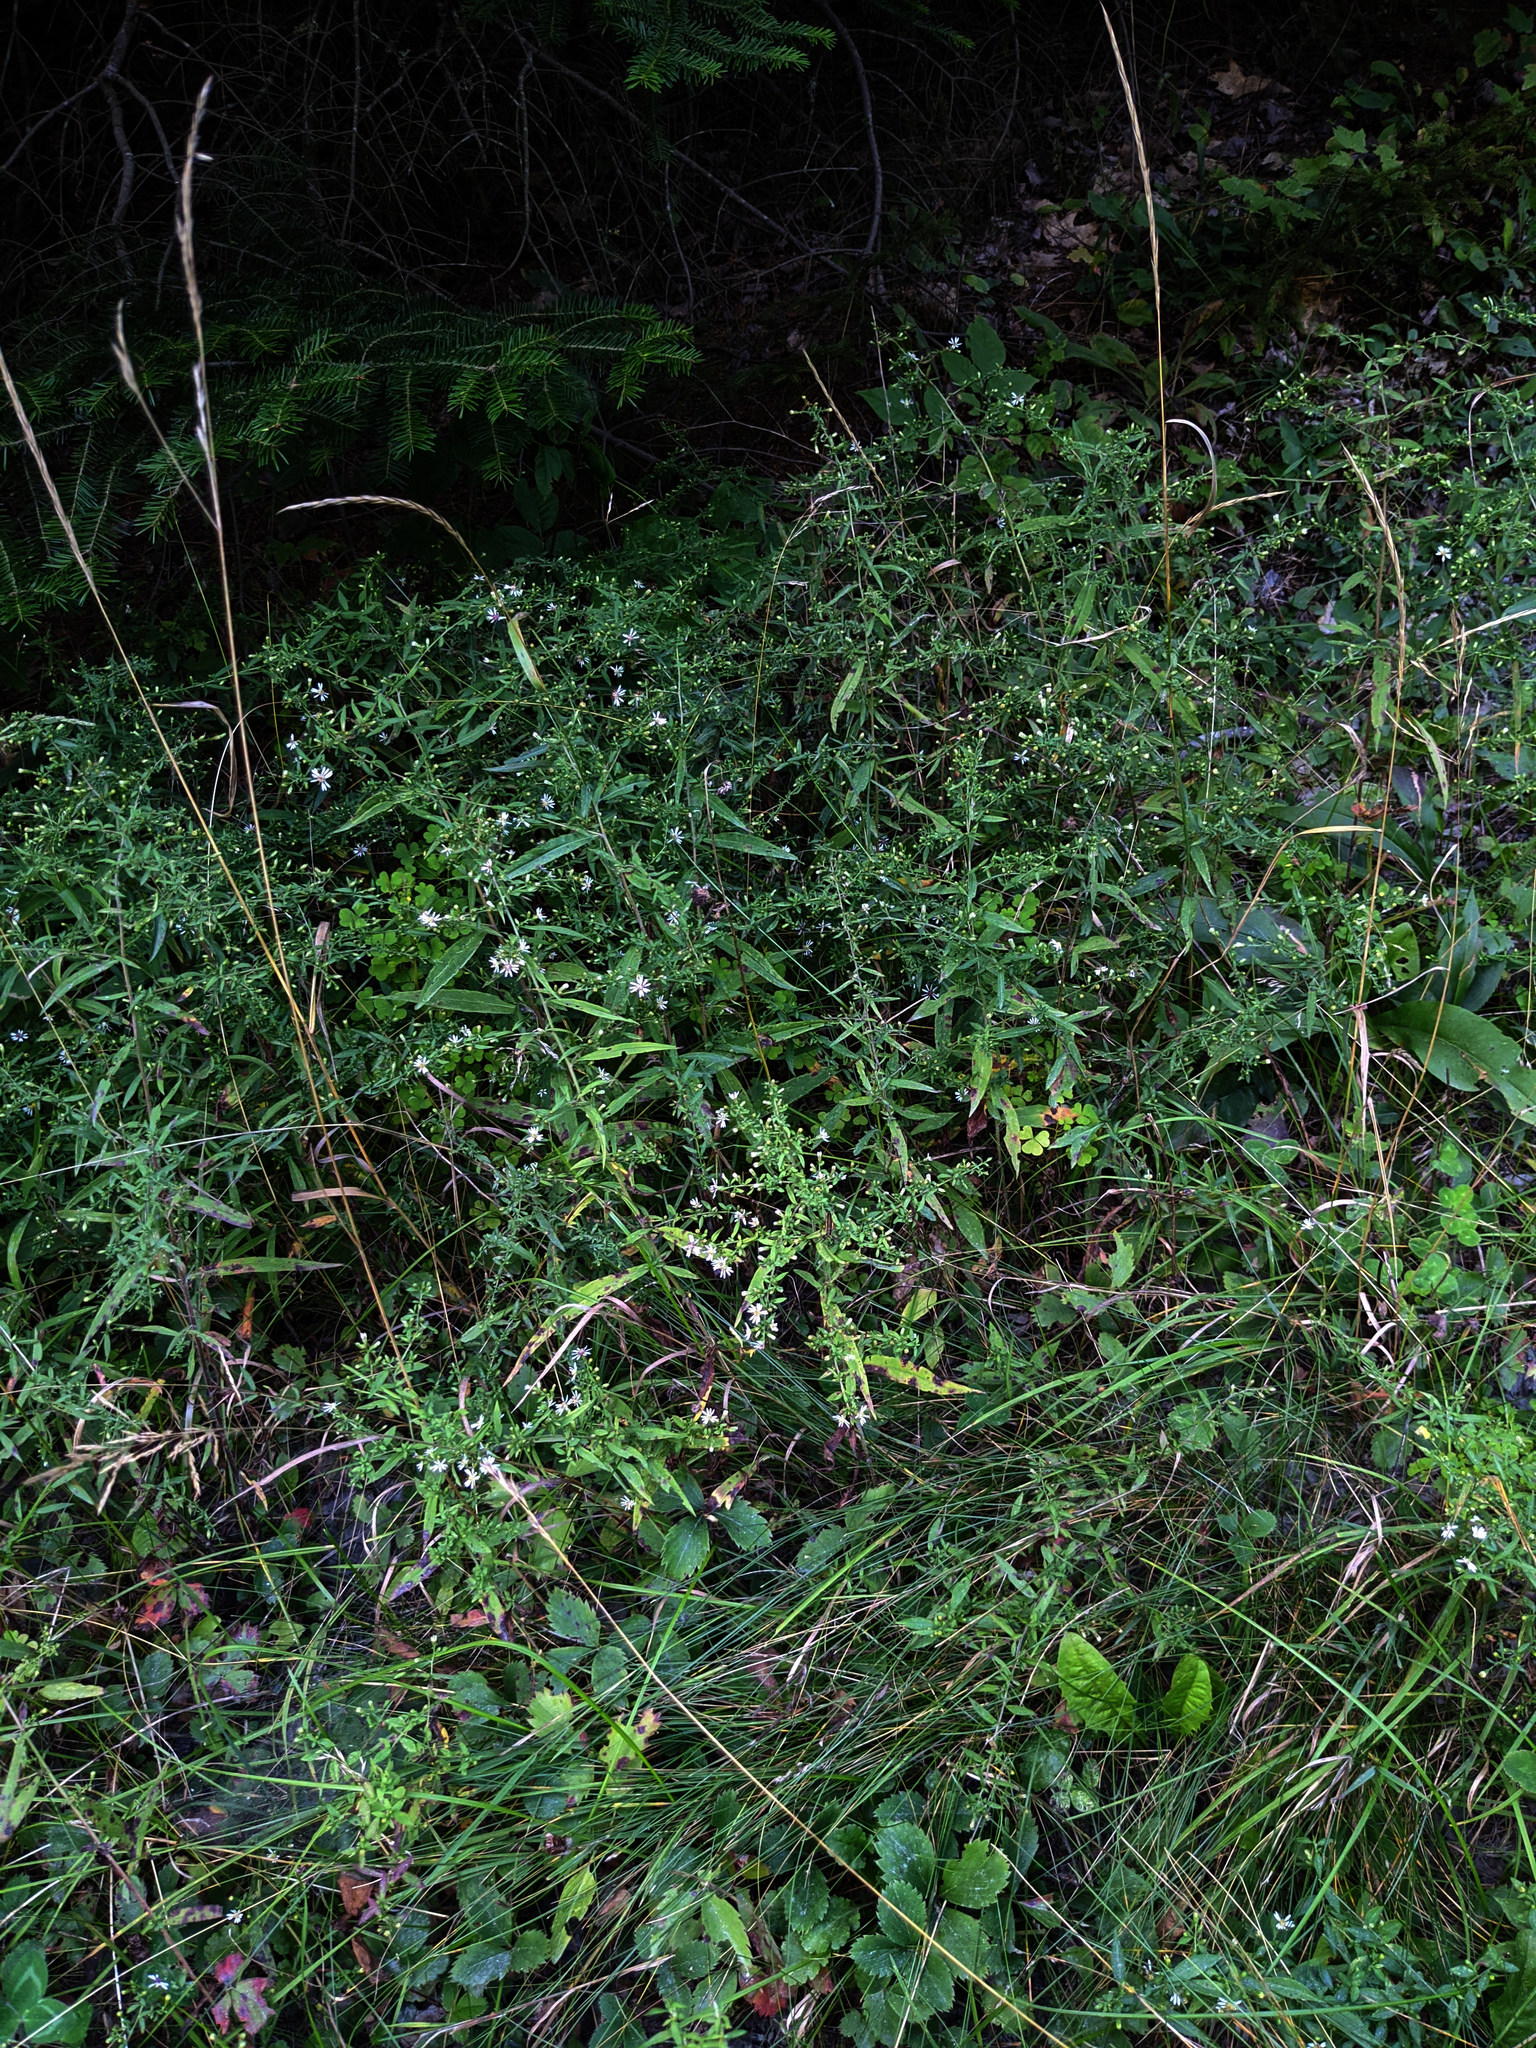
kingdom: Plantae
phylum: Tracheophyta
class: Magnoliopsida
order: Asterales
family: Asteraceae
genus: Symphyotrichum
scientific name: Symphyotrichum lateriflorum
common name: Calico aster
